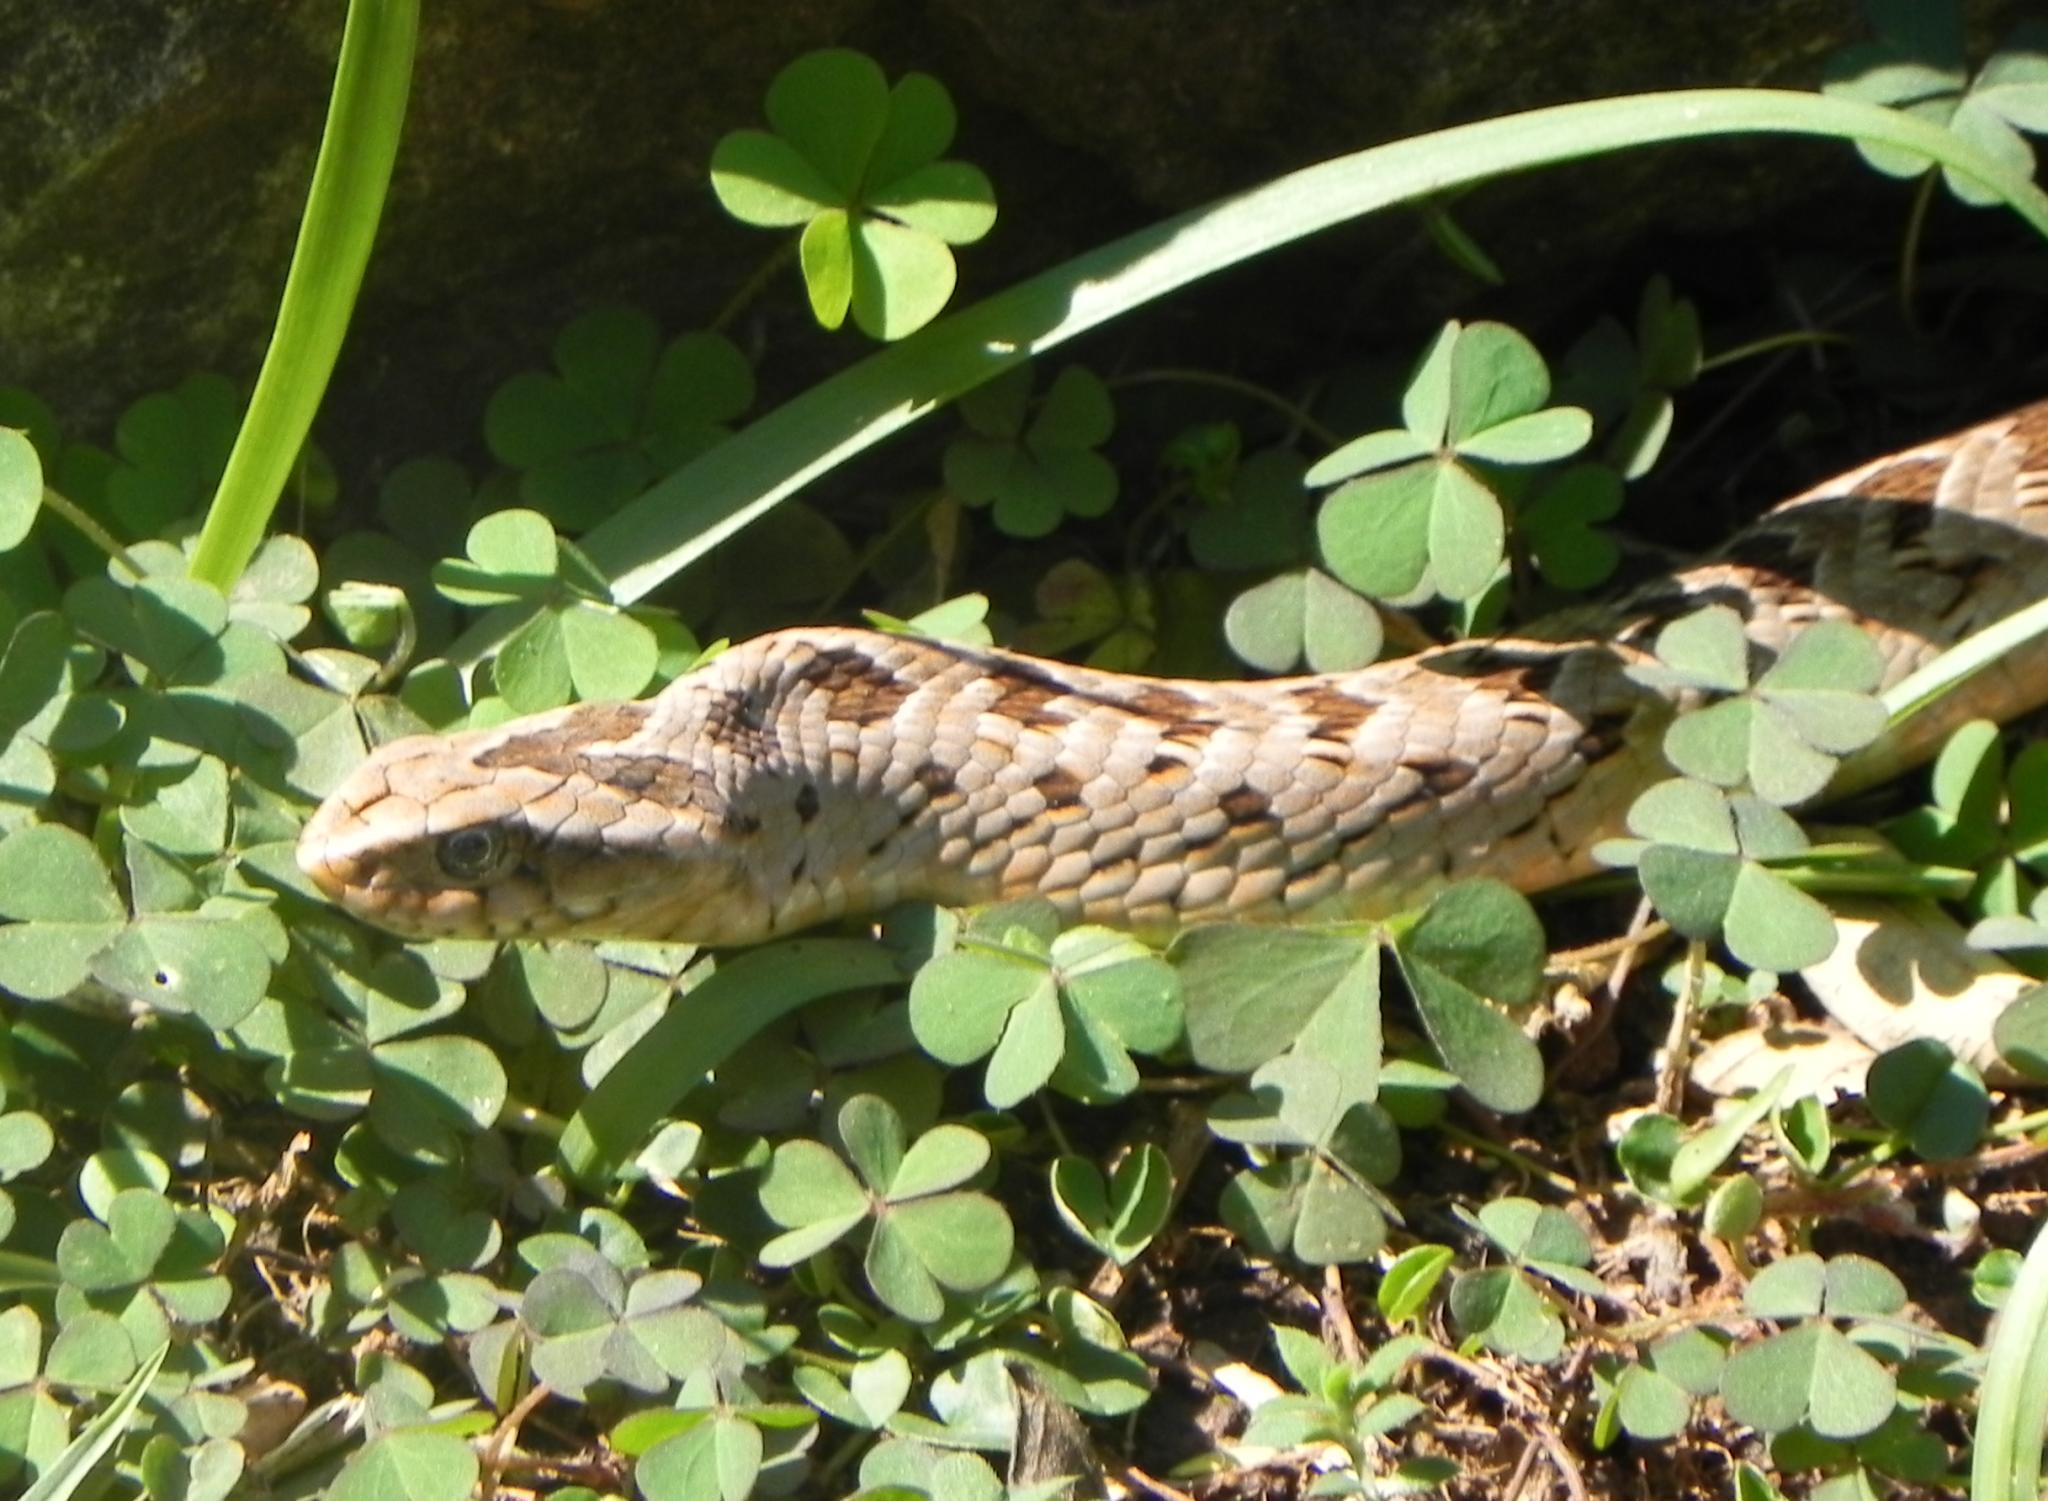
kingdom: Animalia
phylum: Chordata
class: Squamata
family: Viperidae
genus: Causus
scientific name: Causus rhombeatus
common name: Common night adder
